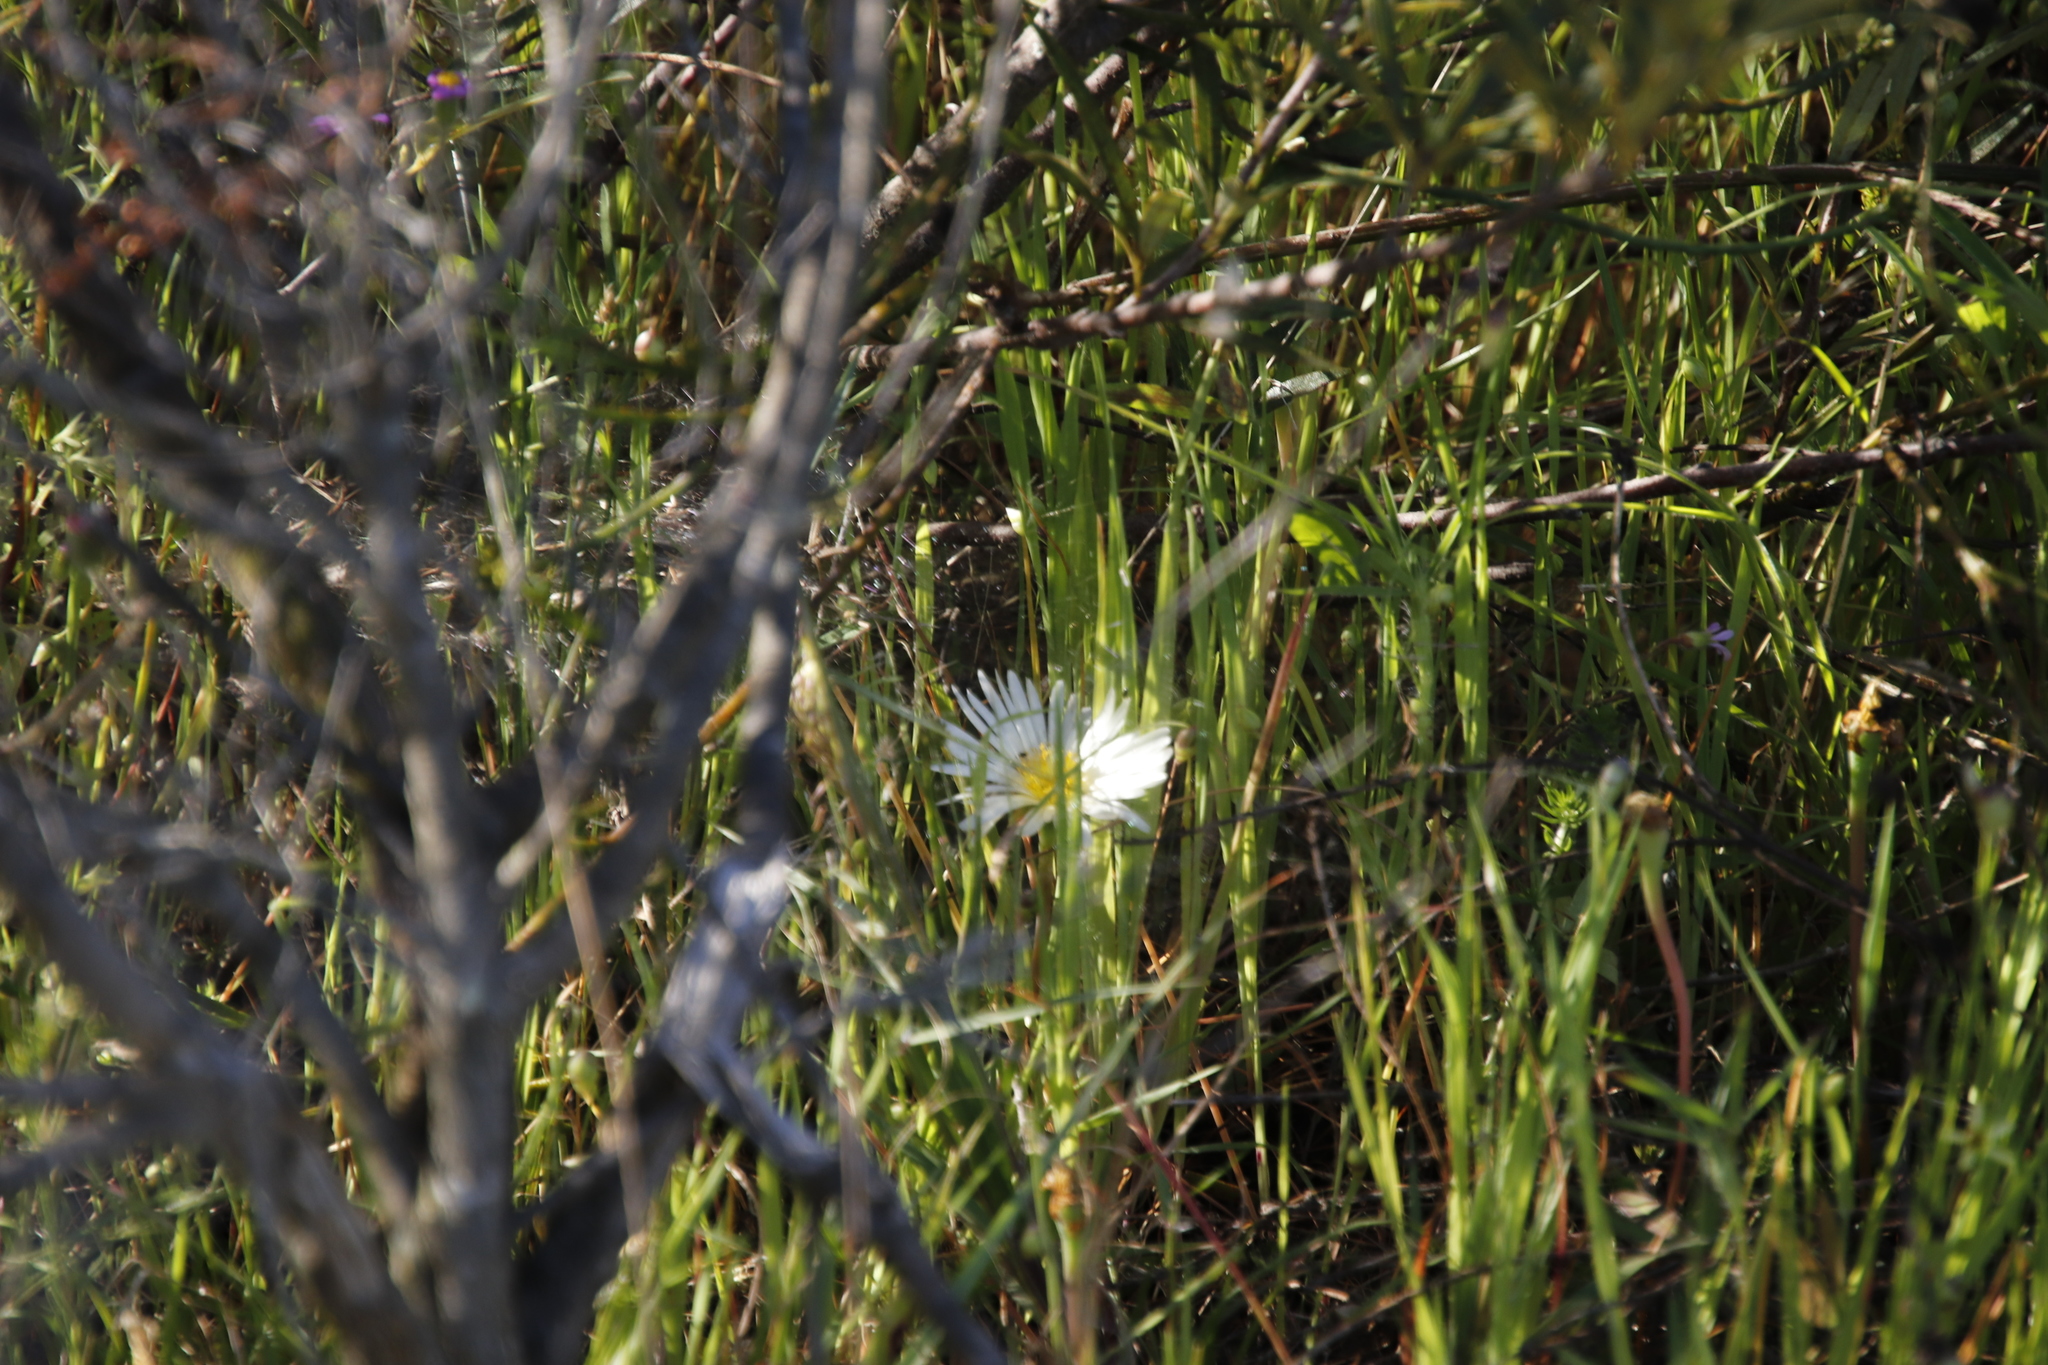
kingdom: Plantae
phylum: Tracheophyta
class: Magnoliopsida
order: Caryophyllales
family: Aizoaceae
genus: Lampranthus
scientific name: Lampranthus reptans
